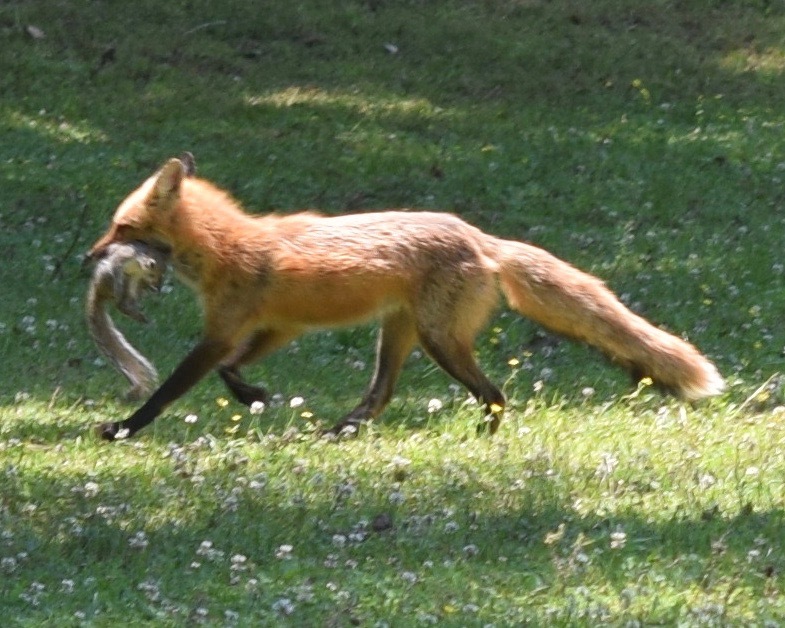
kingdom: Animalia
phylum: Chordata
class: Mammalia
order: Carnivora
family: Canidae
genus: Vulpes
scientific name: Vulpes vulpes
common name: Red fox
